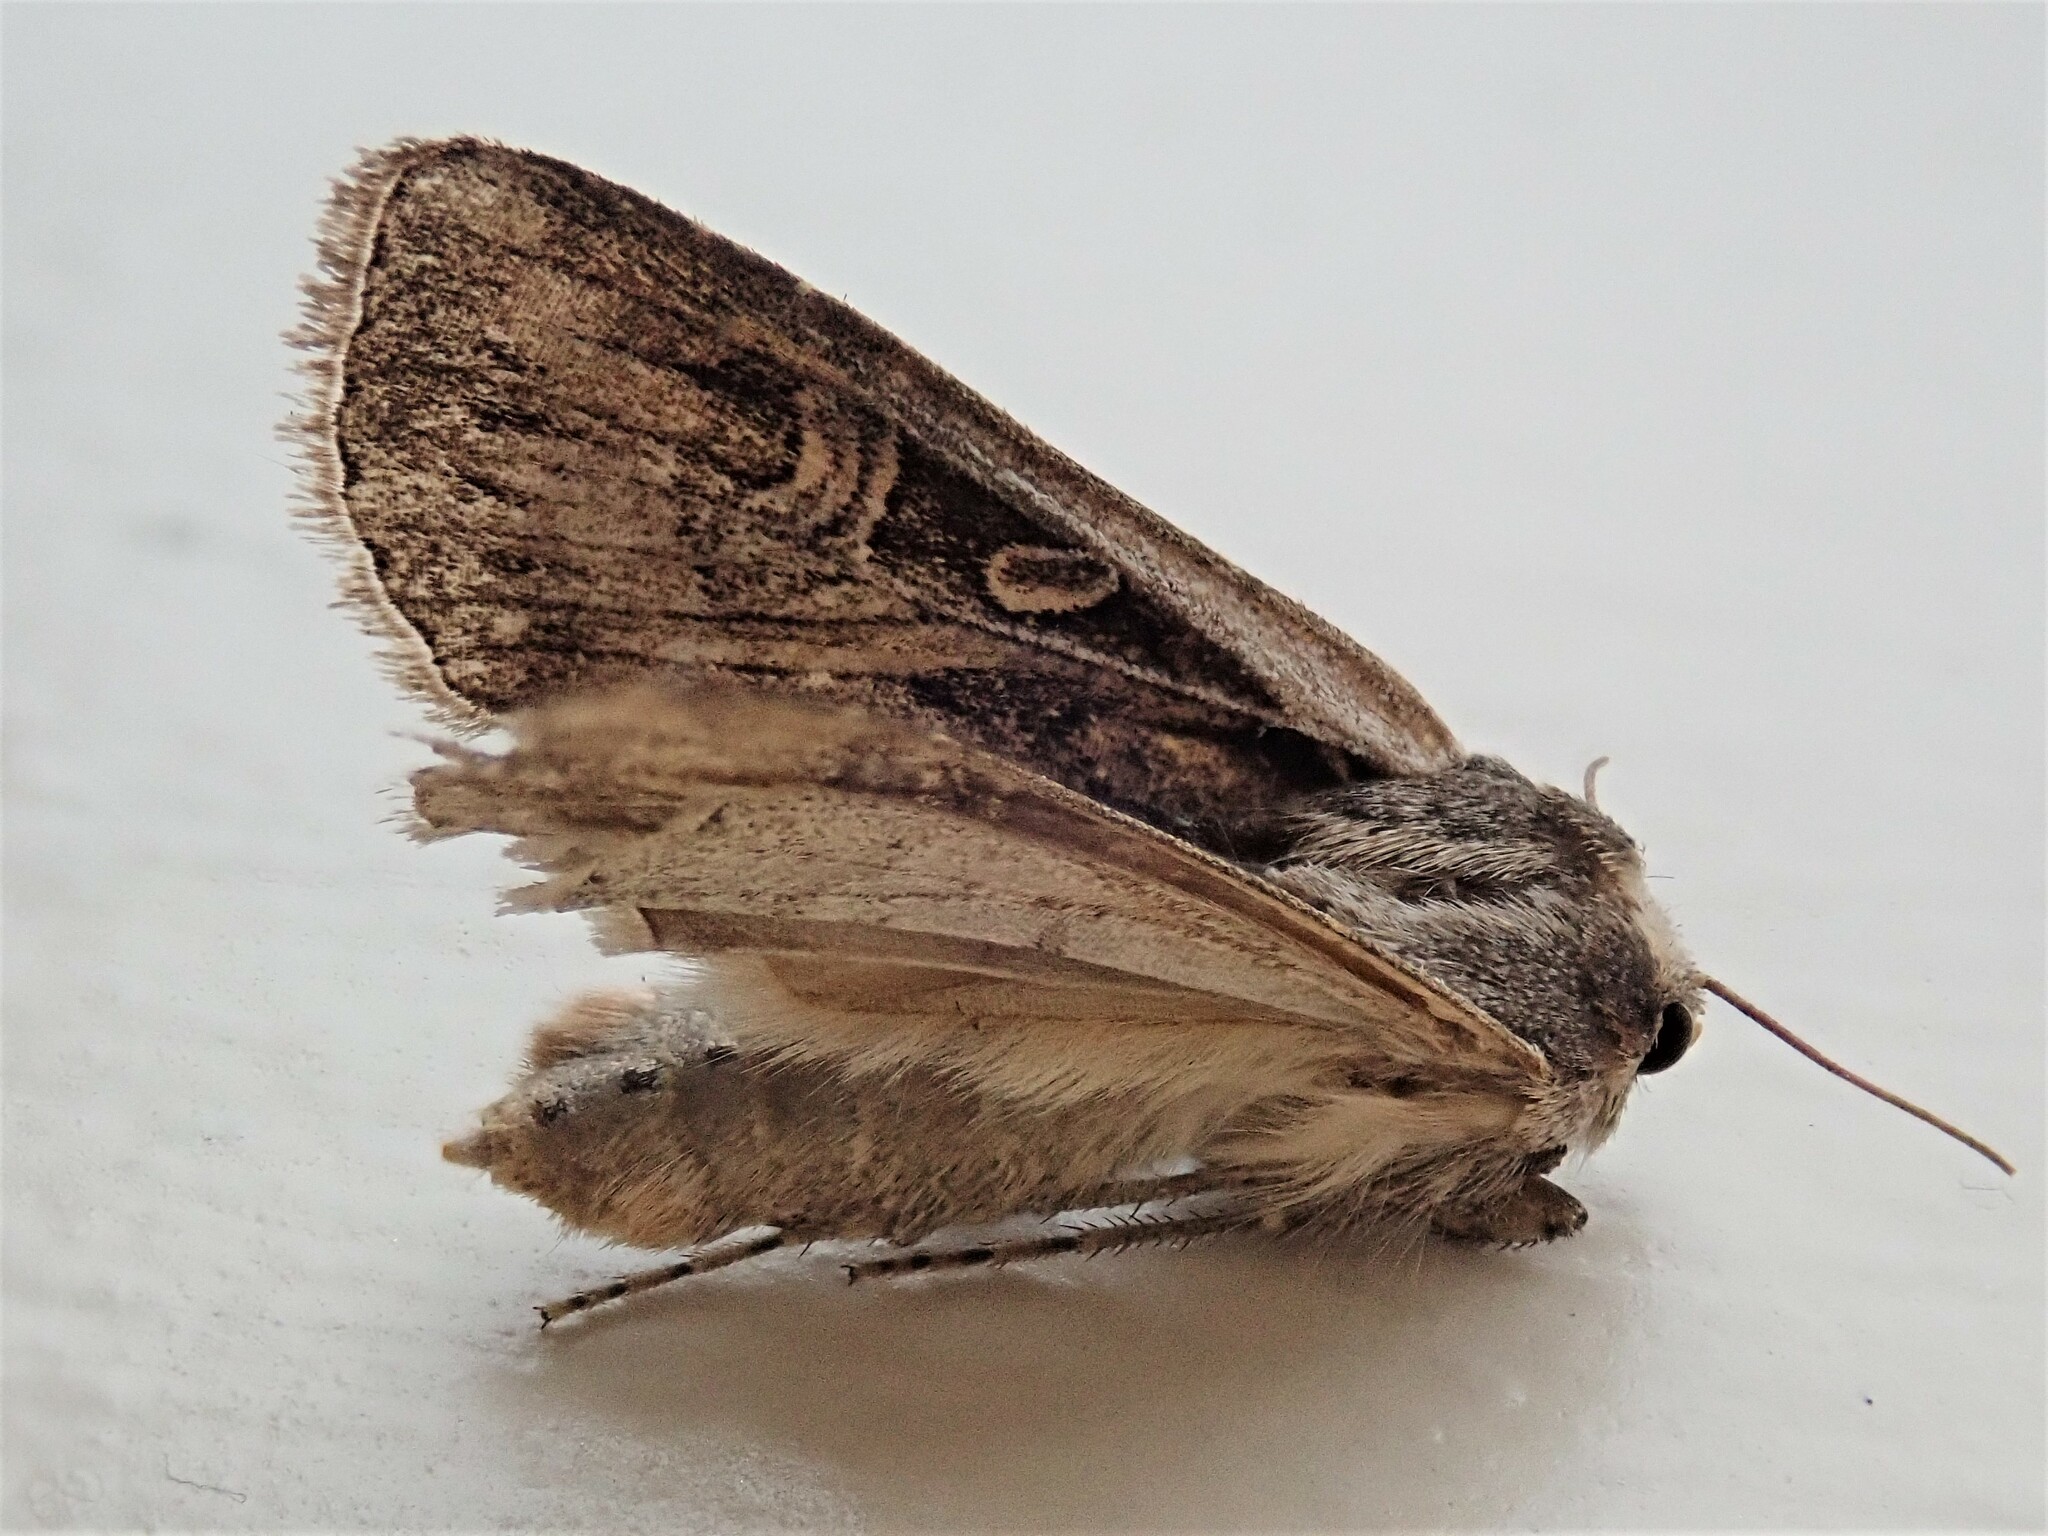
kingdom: Animalia
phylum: Arthropoda
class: Insecta
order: Lepidoptera
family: Noctuidae
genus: Euxoa
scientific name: Euxoa auxiliaris
